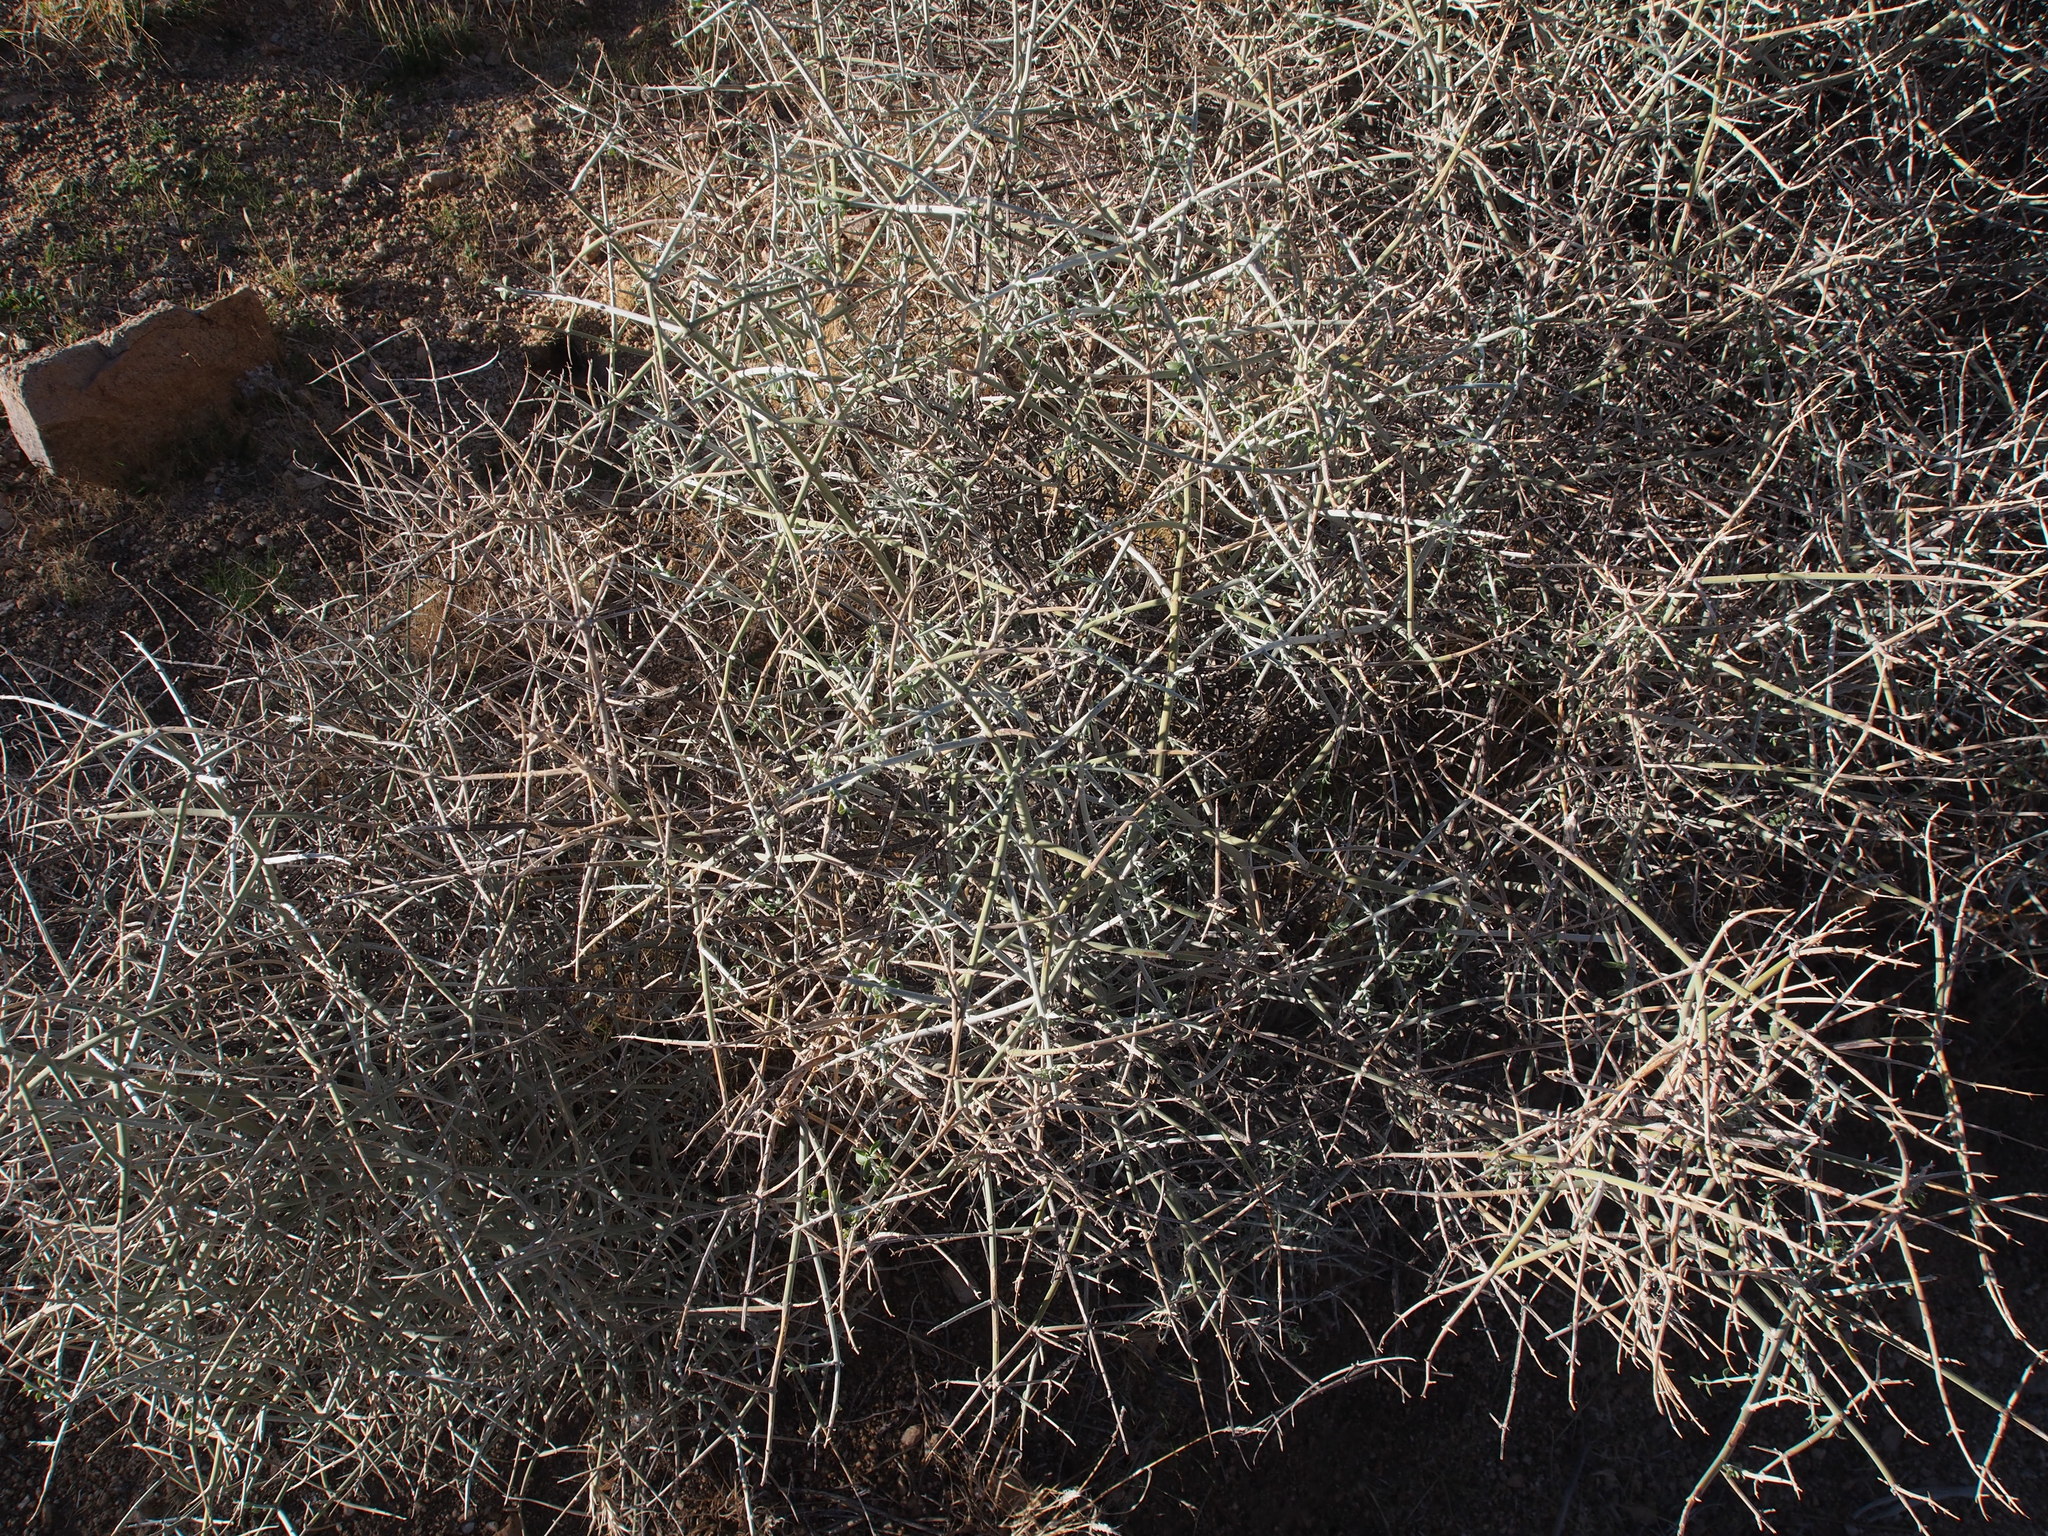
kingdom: Plantae
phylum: Tracheophyta
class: Magnoliopsida
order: Lamiales
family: Lamiaceae
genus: Scutellaria
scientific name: Scutellaria mexicana
